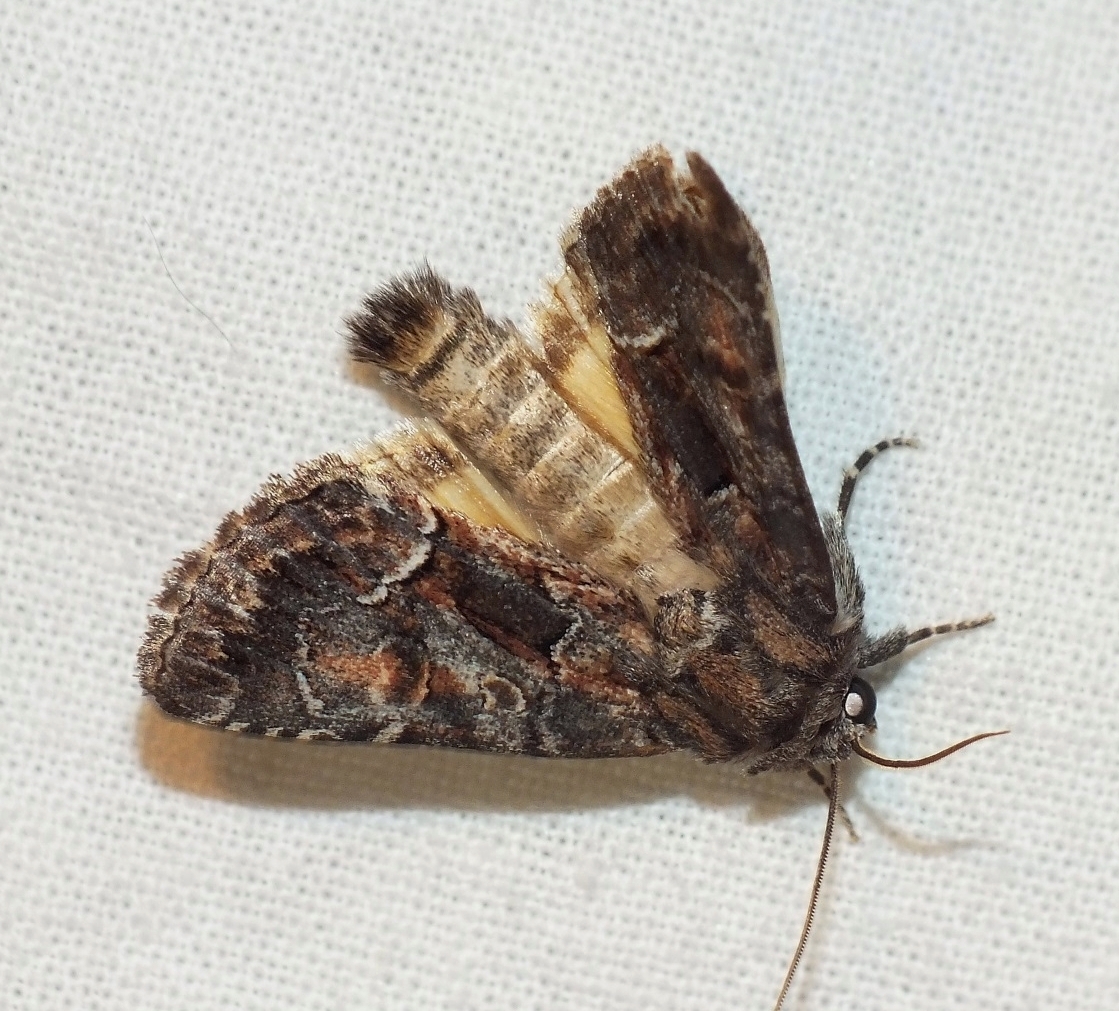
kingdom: Animalia
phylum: Arthropoda
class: Insecta
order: Lepidoptera
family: Noctuidae
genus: Thalpophila
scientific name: Thalpophila matura
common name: Straw underwing
